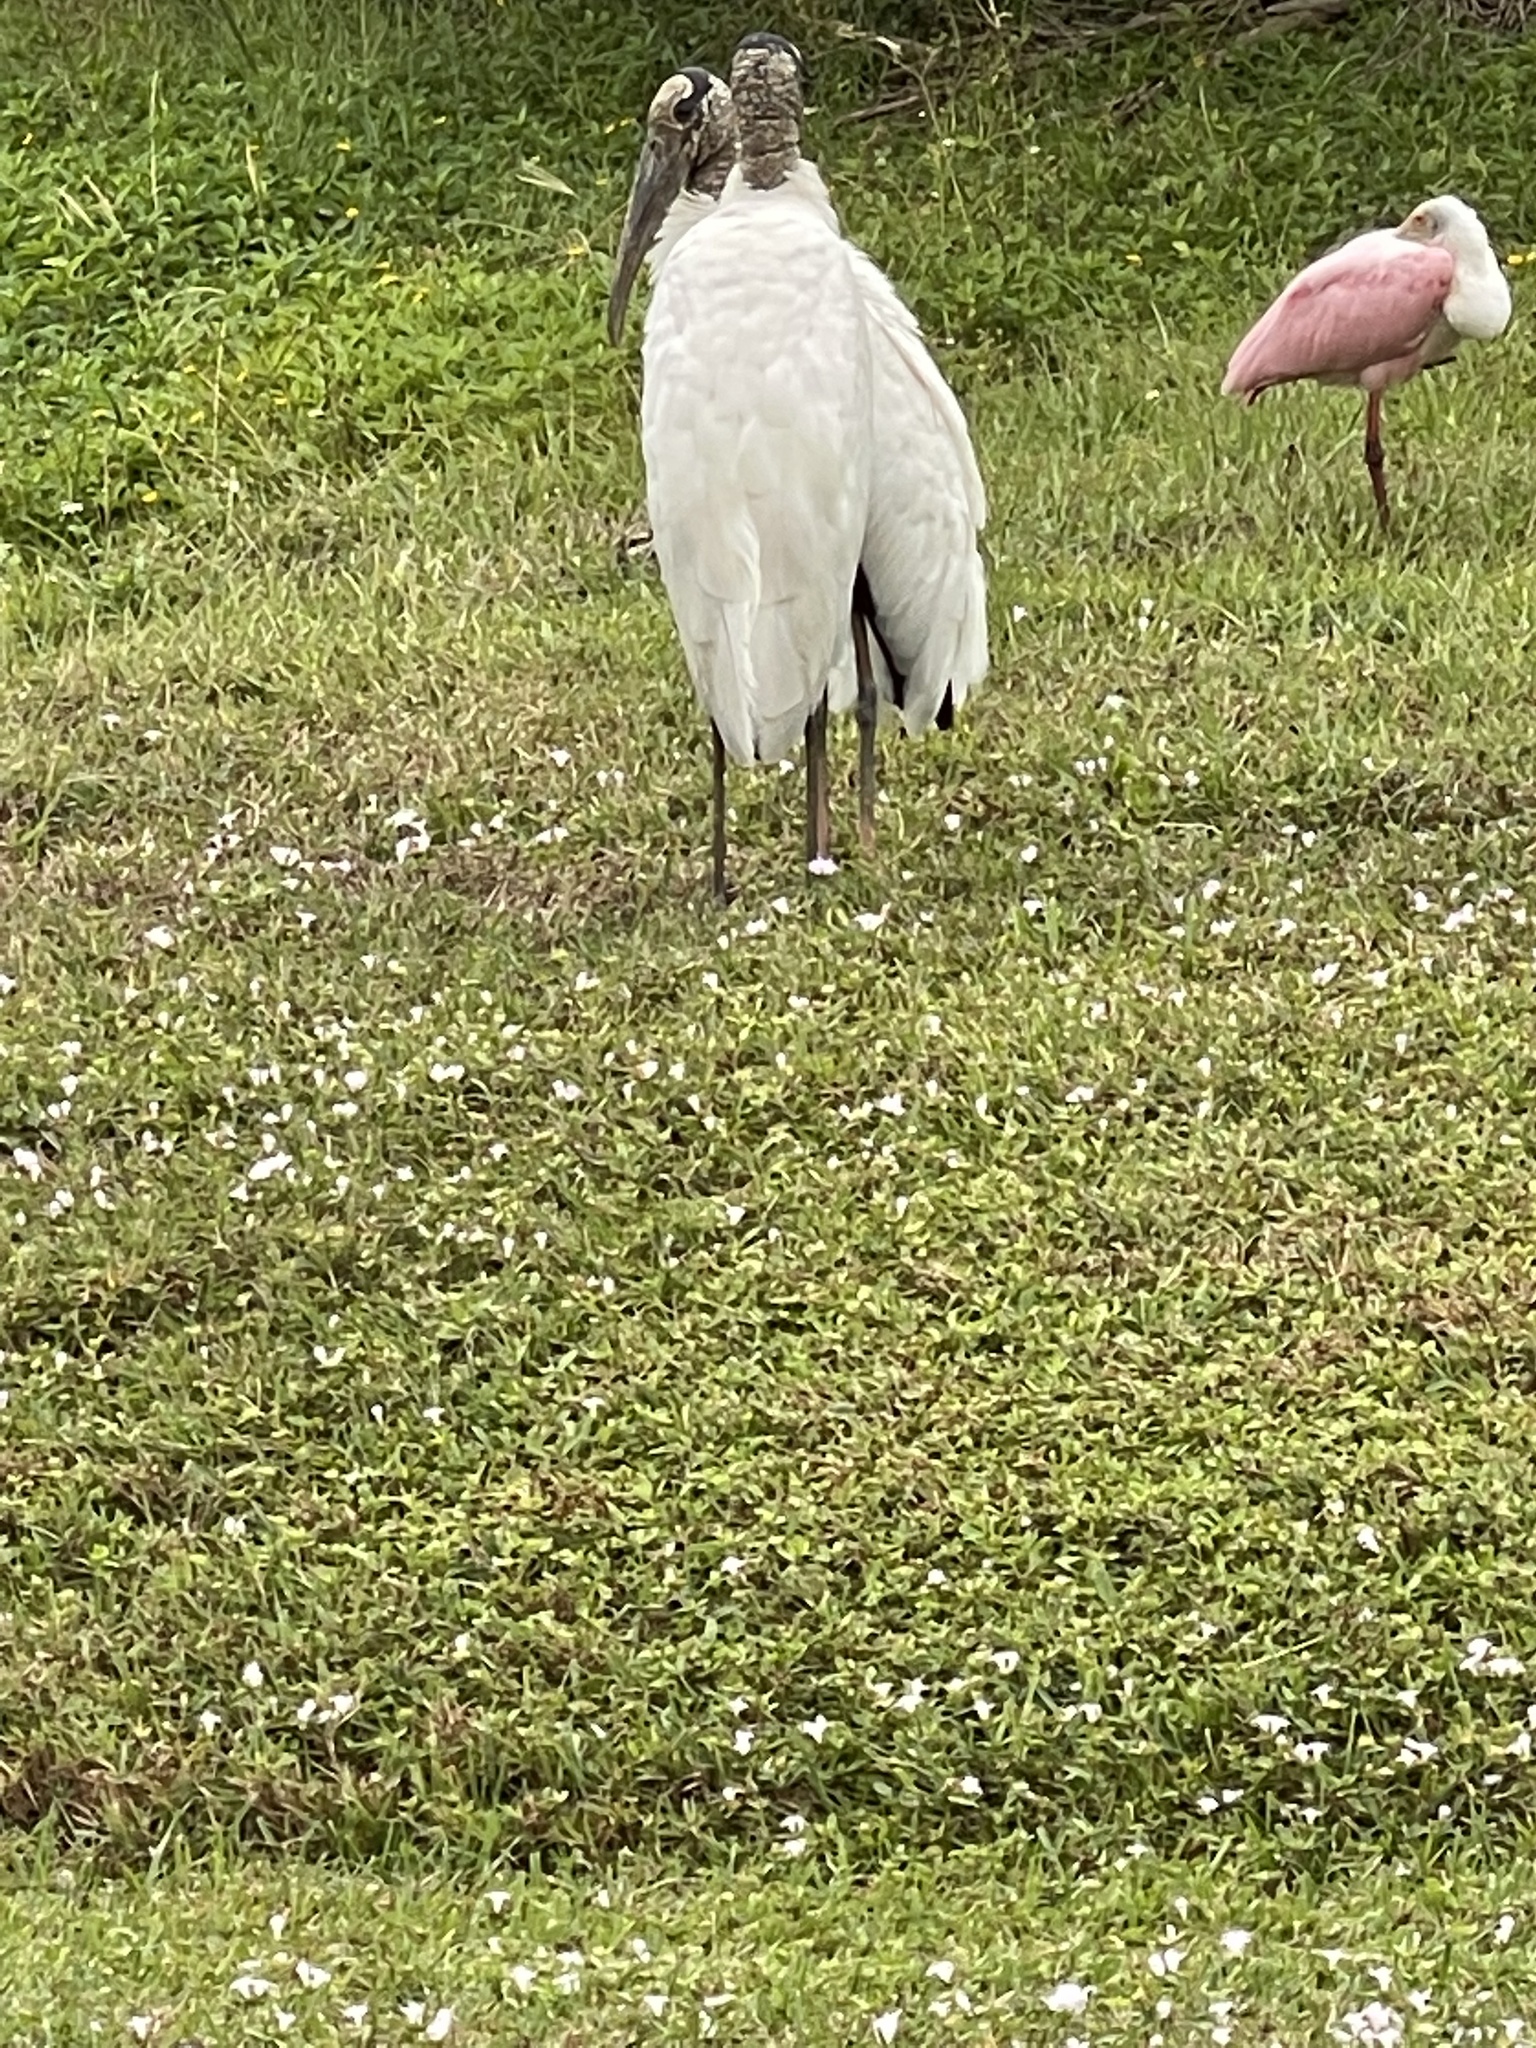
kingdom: Animalia
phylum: Chordata
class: Aves
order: Pelecaniformes
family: Threskiornithidae
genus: Platalea
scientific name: Platalea ajaja
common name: Roseate spoonbill
